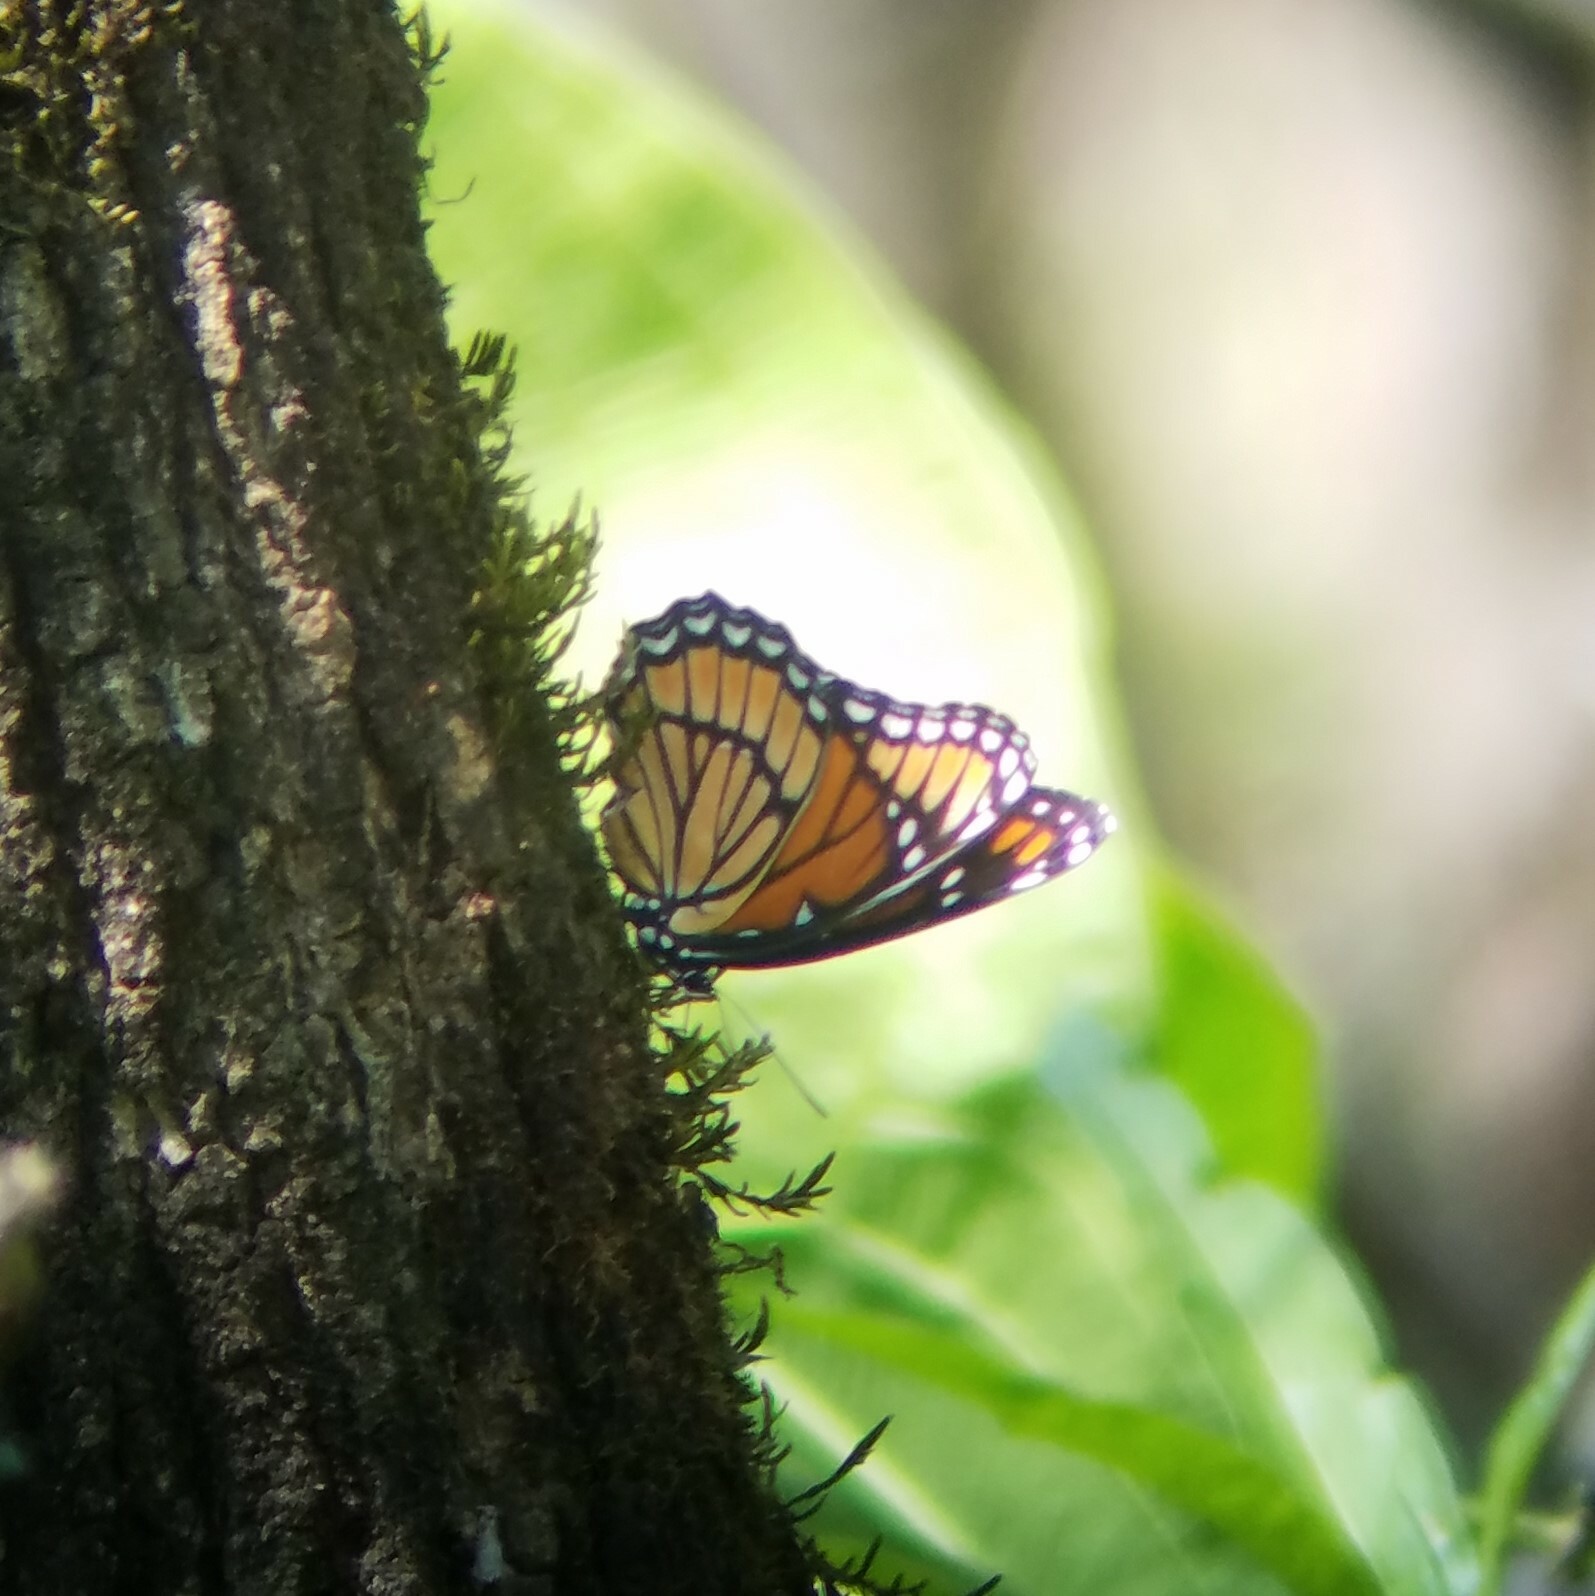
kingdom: Animalia
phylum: Arthropoda
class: Insecta
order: Lepidoptera
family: Nymphalidae
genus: Limenitis
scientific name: Limenitis archippus
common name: Viceroy
